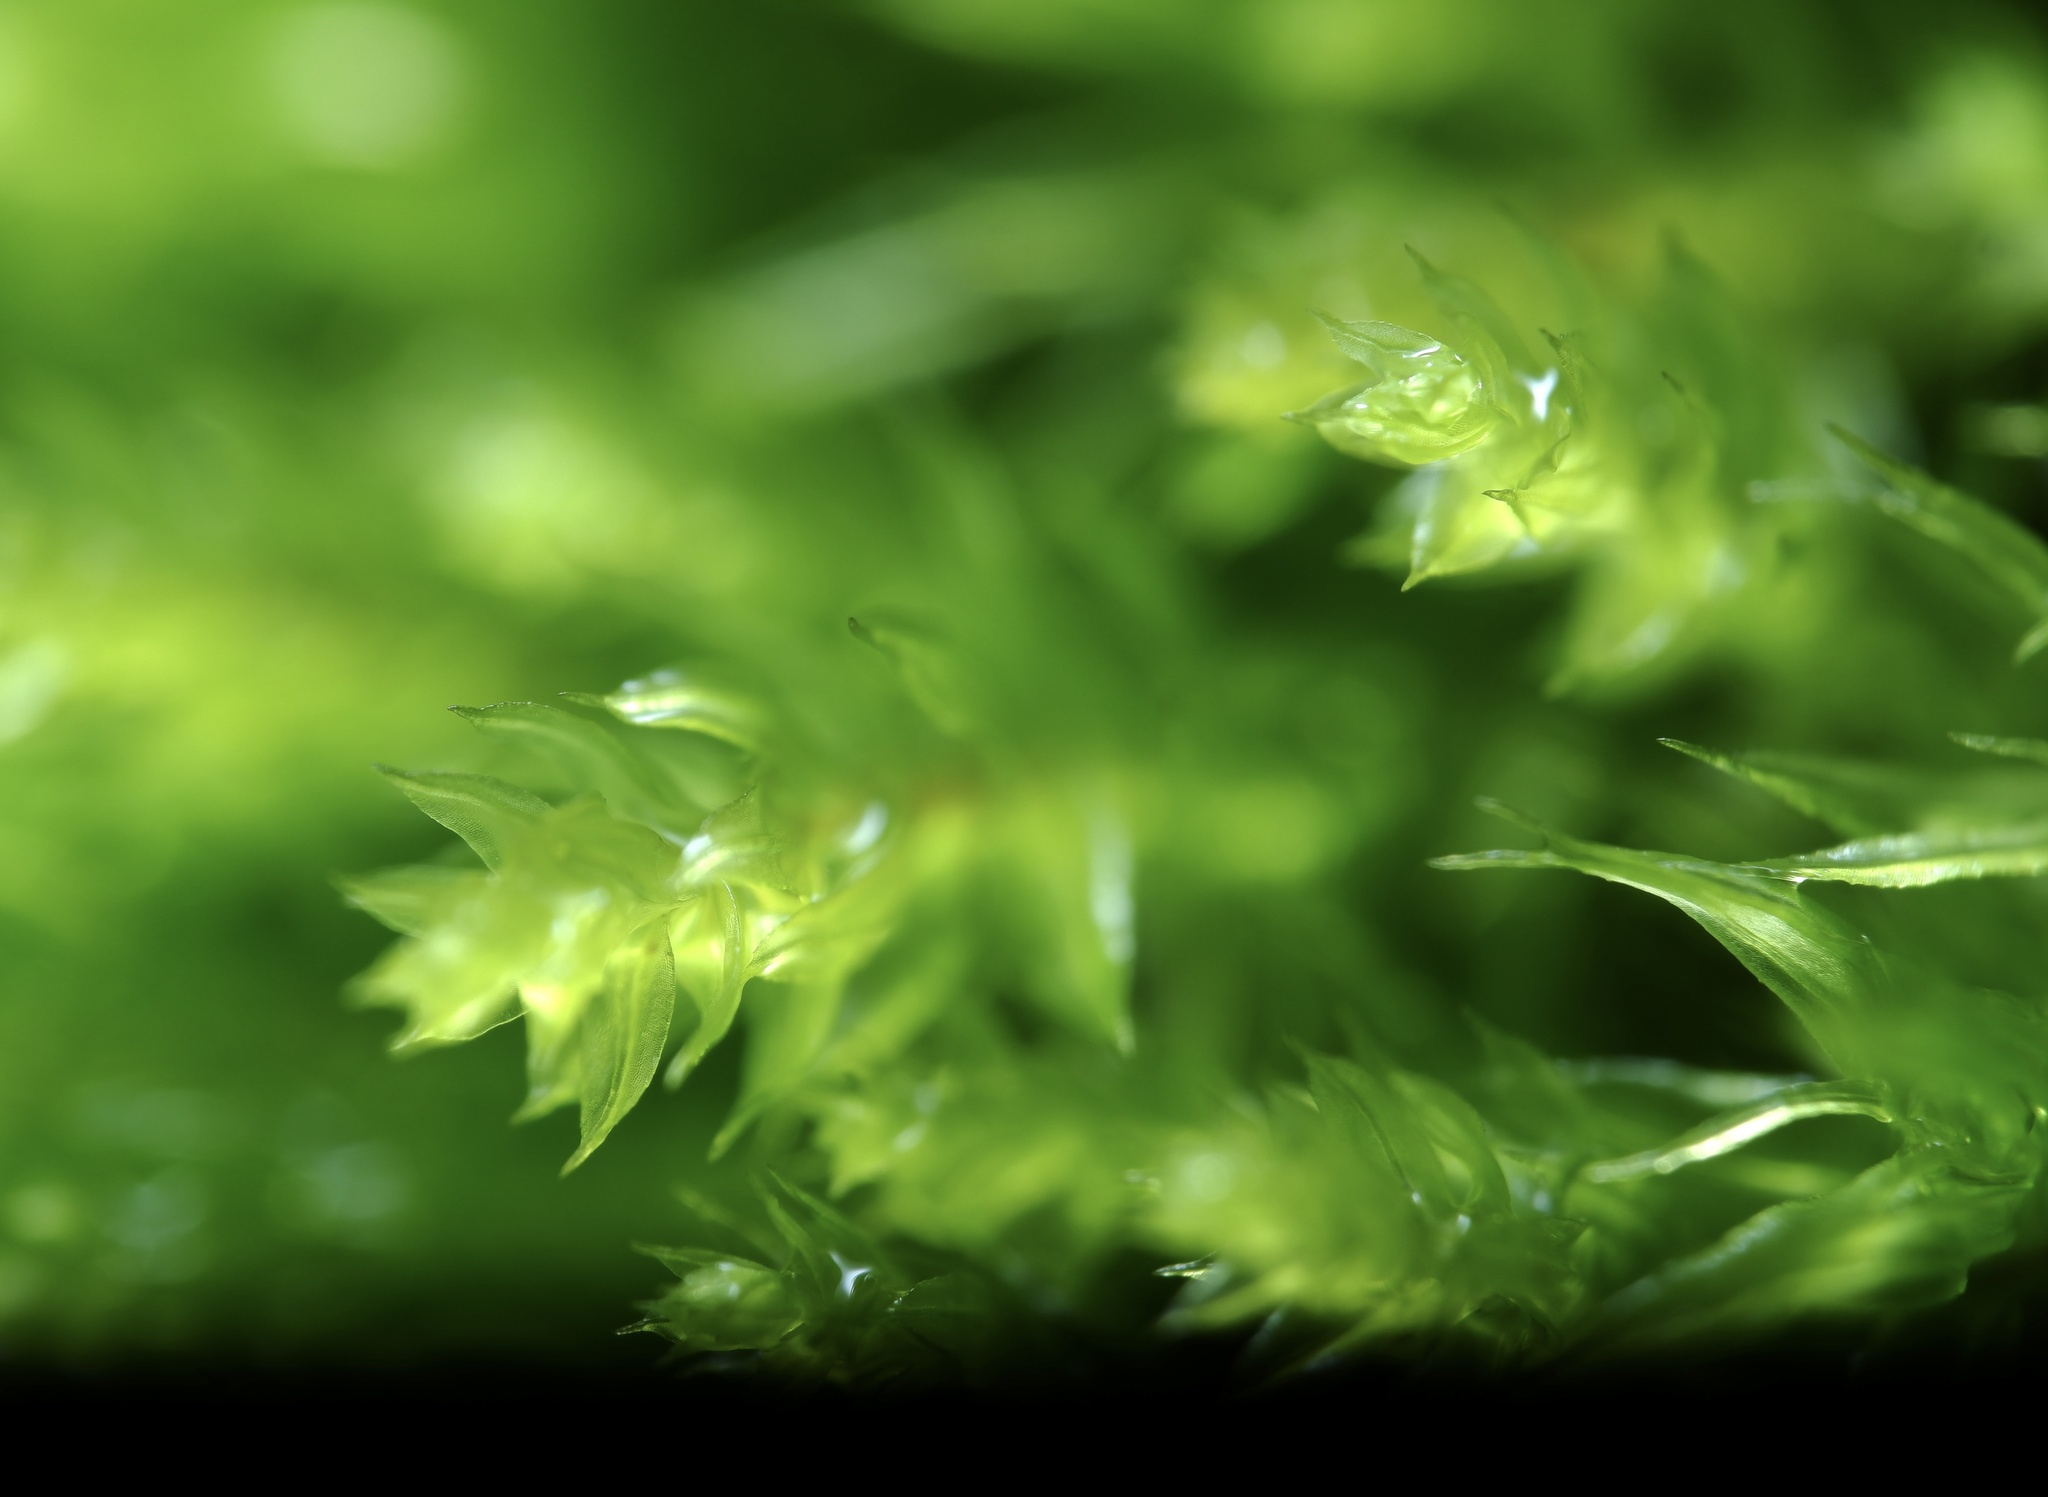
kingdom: Plantae
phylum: Bryophyta
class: Bryopsida
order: Orthodontiales
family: Orthodontiaceae
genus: Leptotheca
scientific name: Leptotheca gaudichaudii
